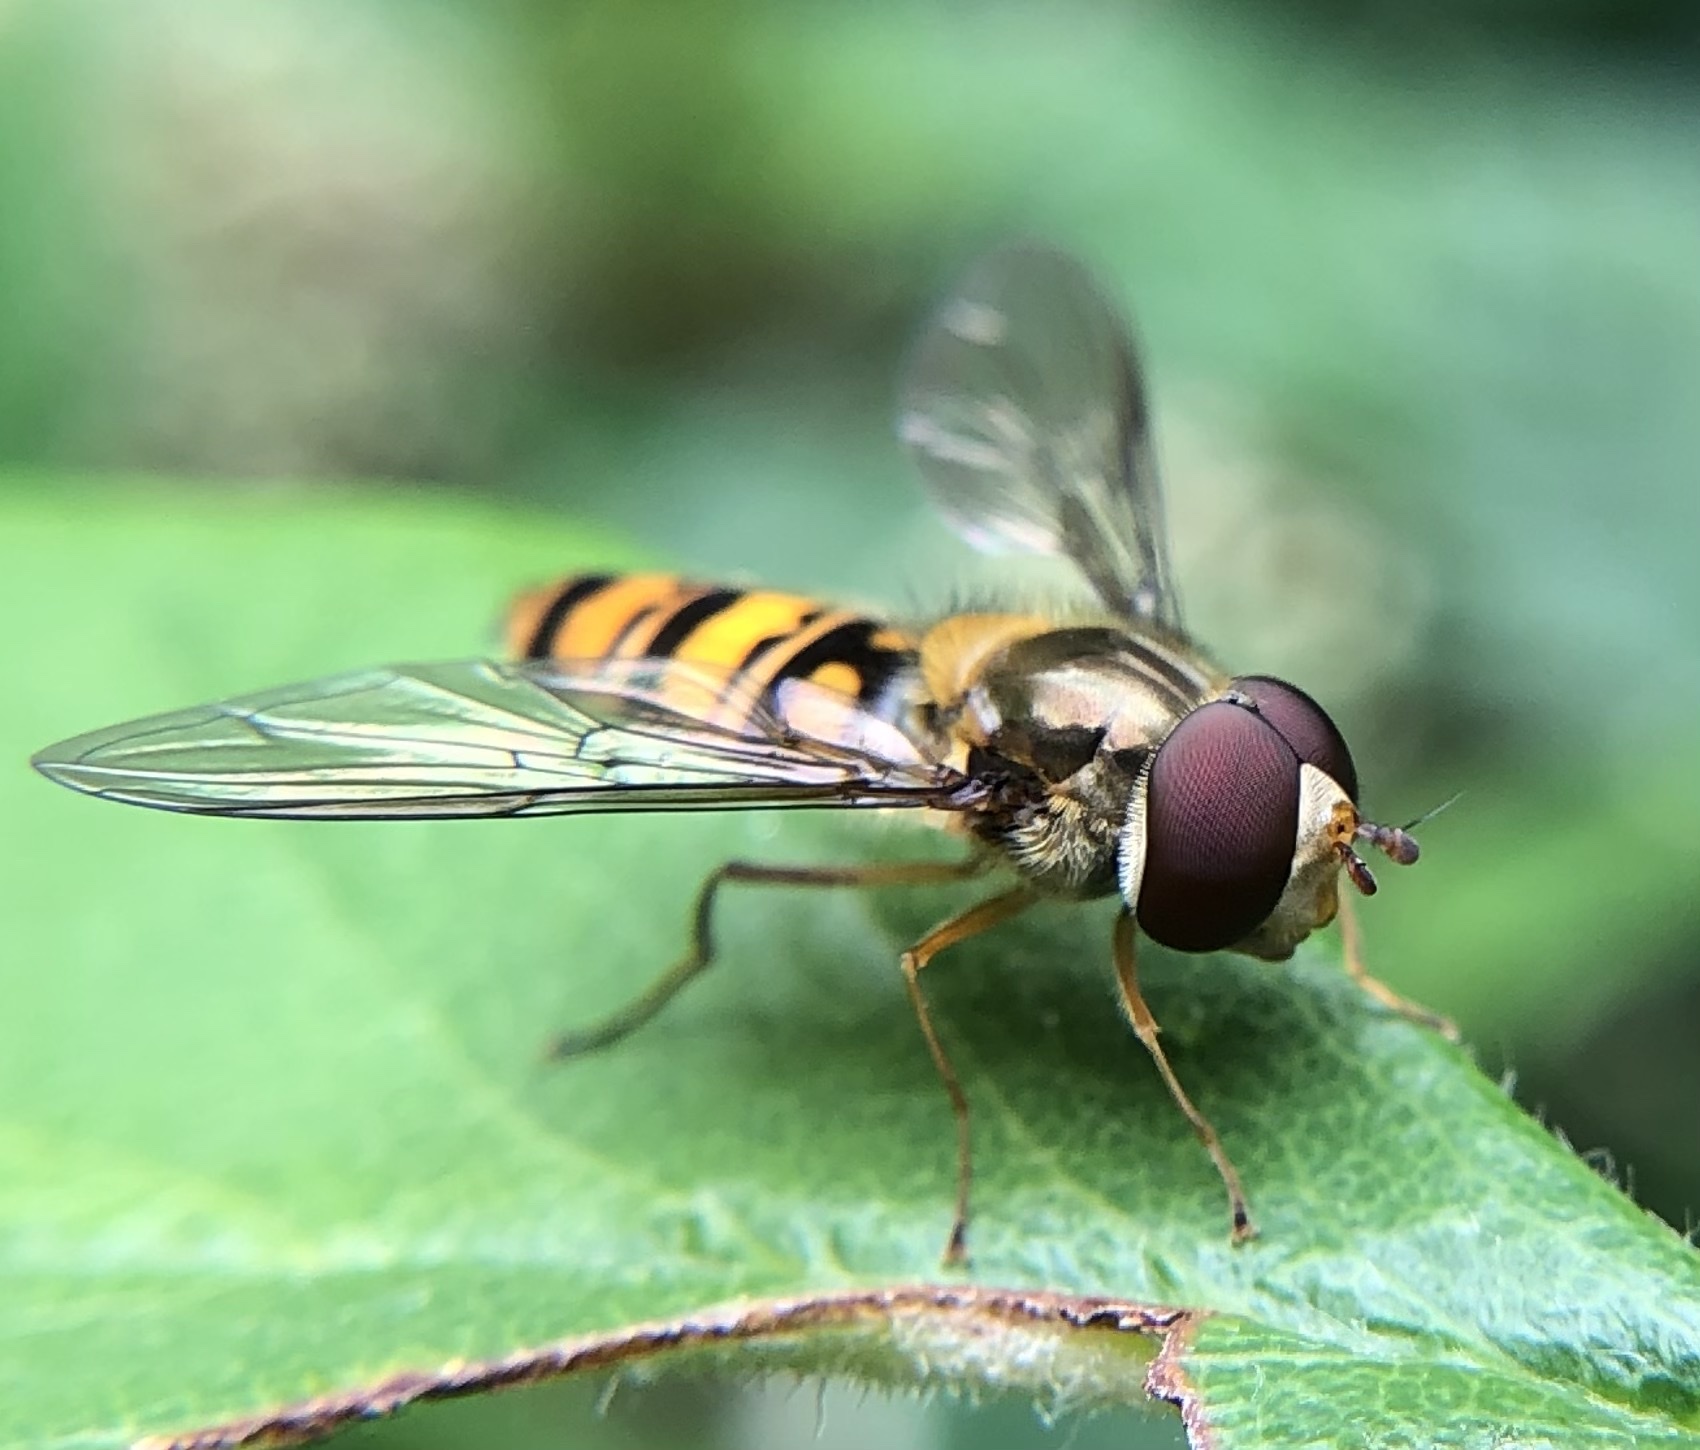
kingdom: Animalia
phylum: Arthropoda
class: Insecta
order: Diptera
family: Syrphidae
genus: Episyrphus
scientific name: Episyrphus balteatus
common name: Marmalade hoverfly
